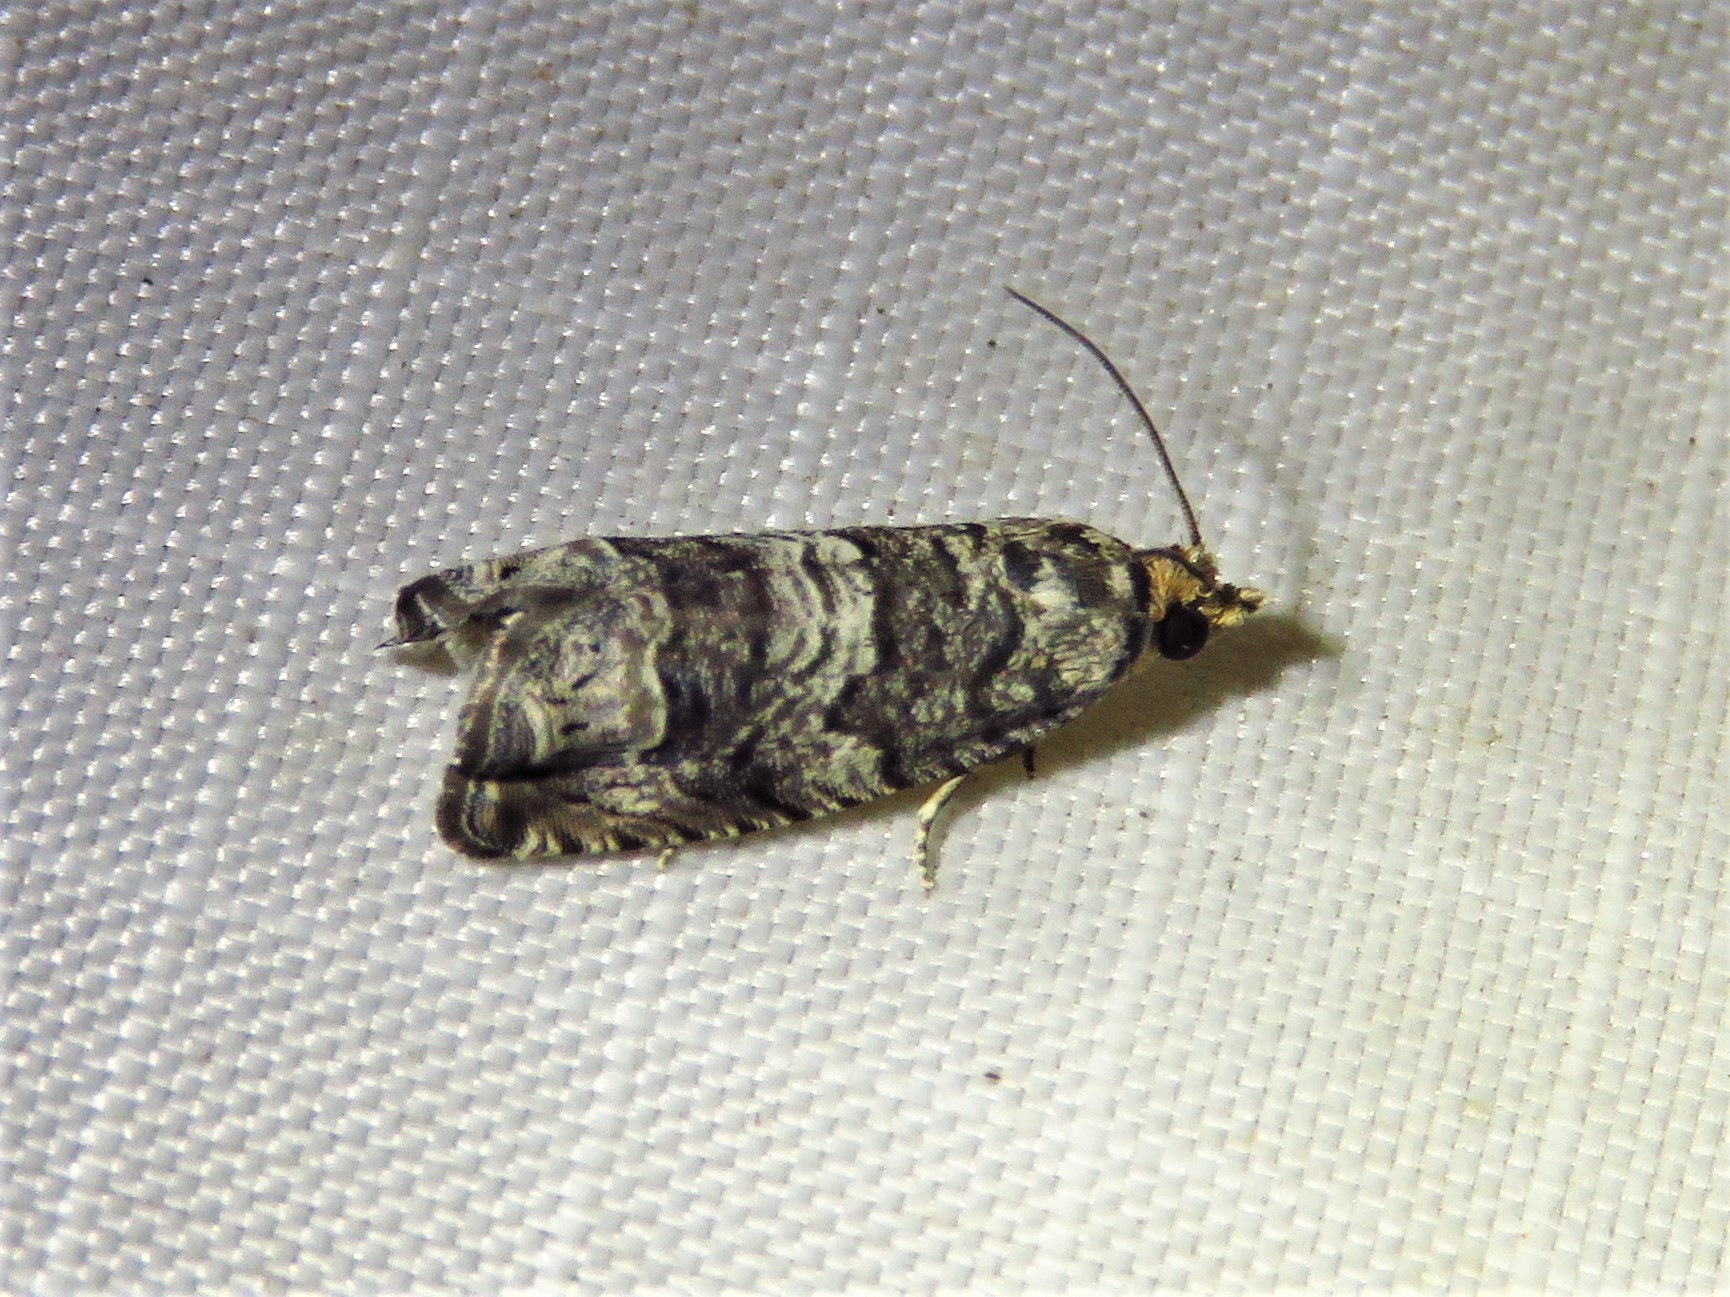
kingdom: Animalia
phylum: Arthropoda
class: Insecta
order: Lepidoptera
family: Tortricidae
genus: Cydia
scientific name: Cydia membrosa
